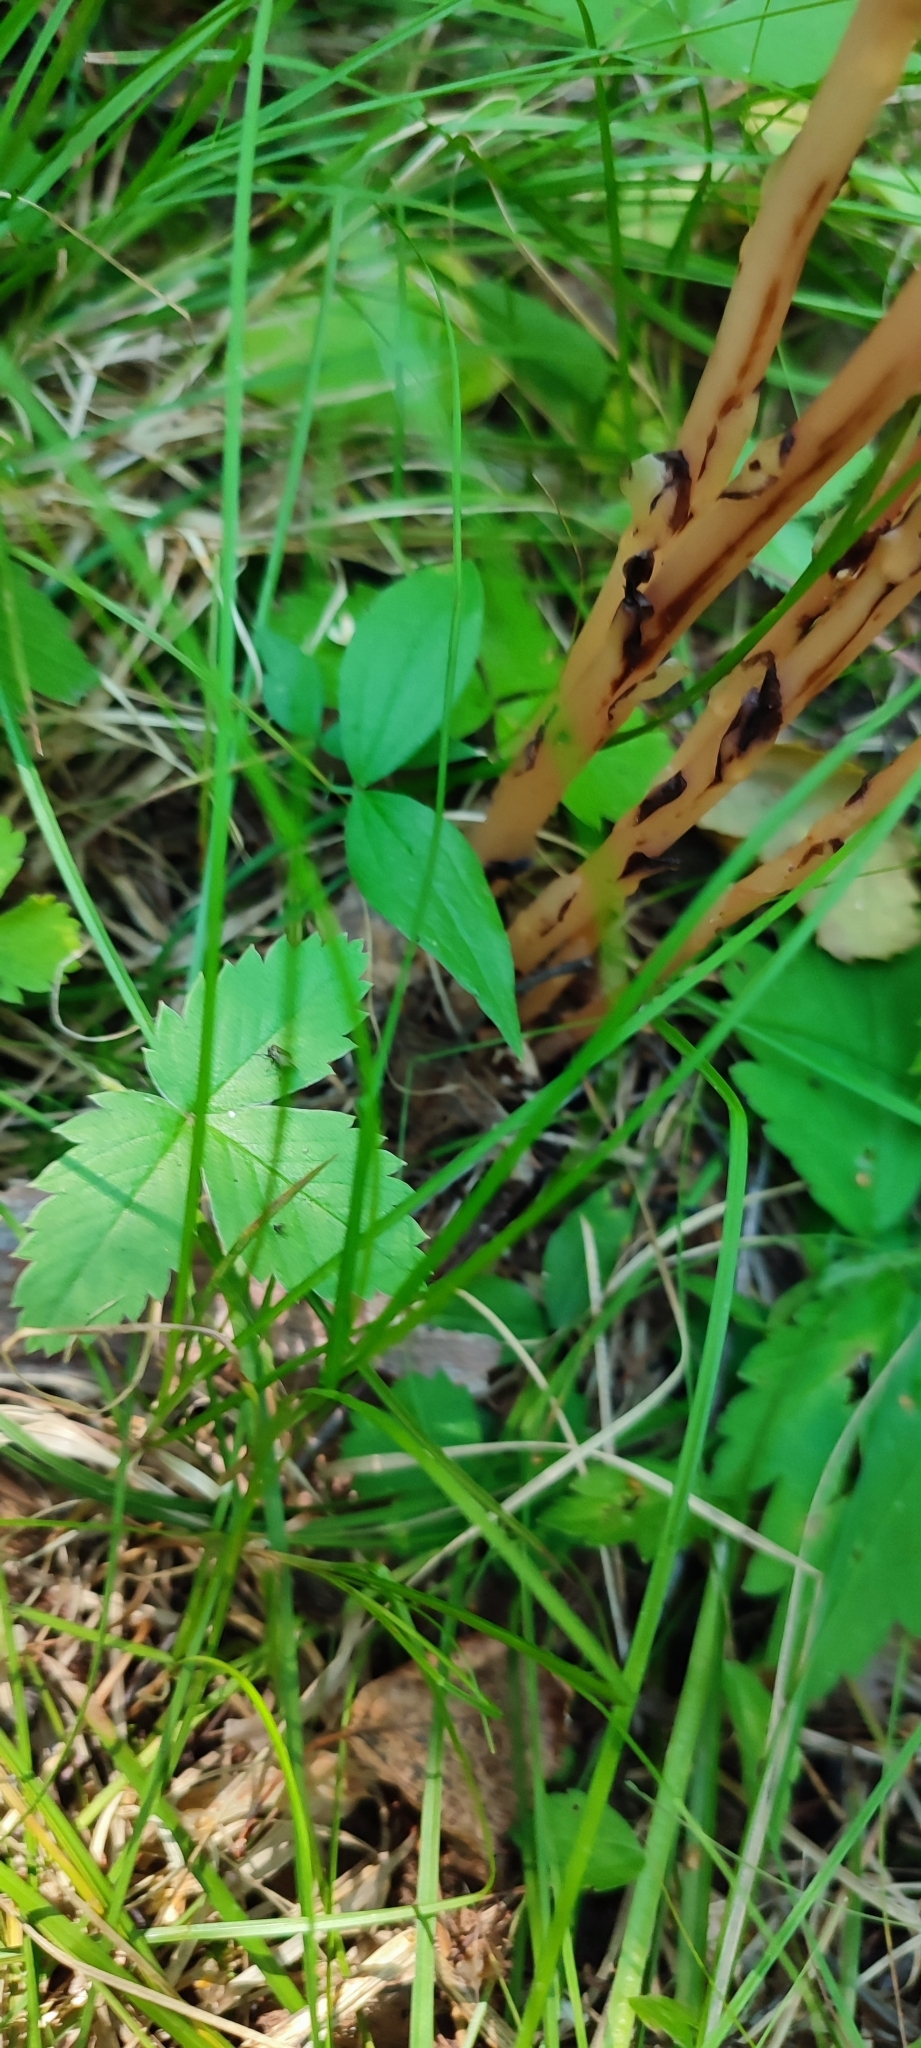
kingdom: Plantae
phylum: Tracheophyta
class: Magnoliopsida
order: Ericales
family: Ericaceae
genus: Hypopitys
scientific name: Hypopitys monotropa
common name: Yellow bird's-nest
